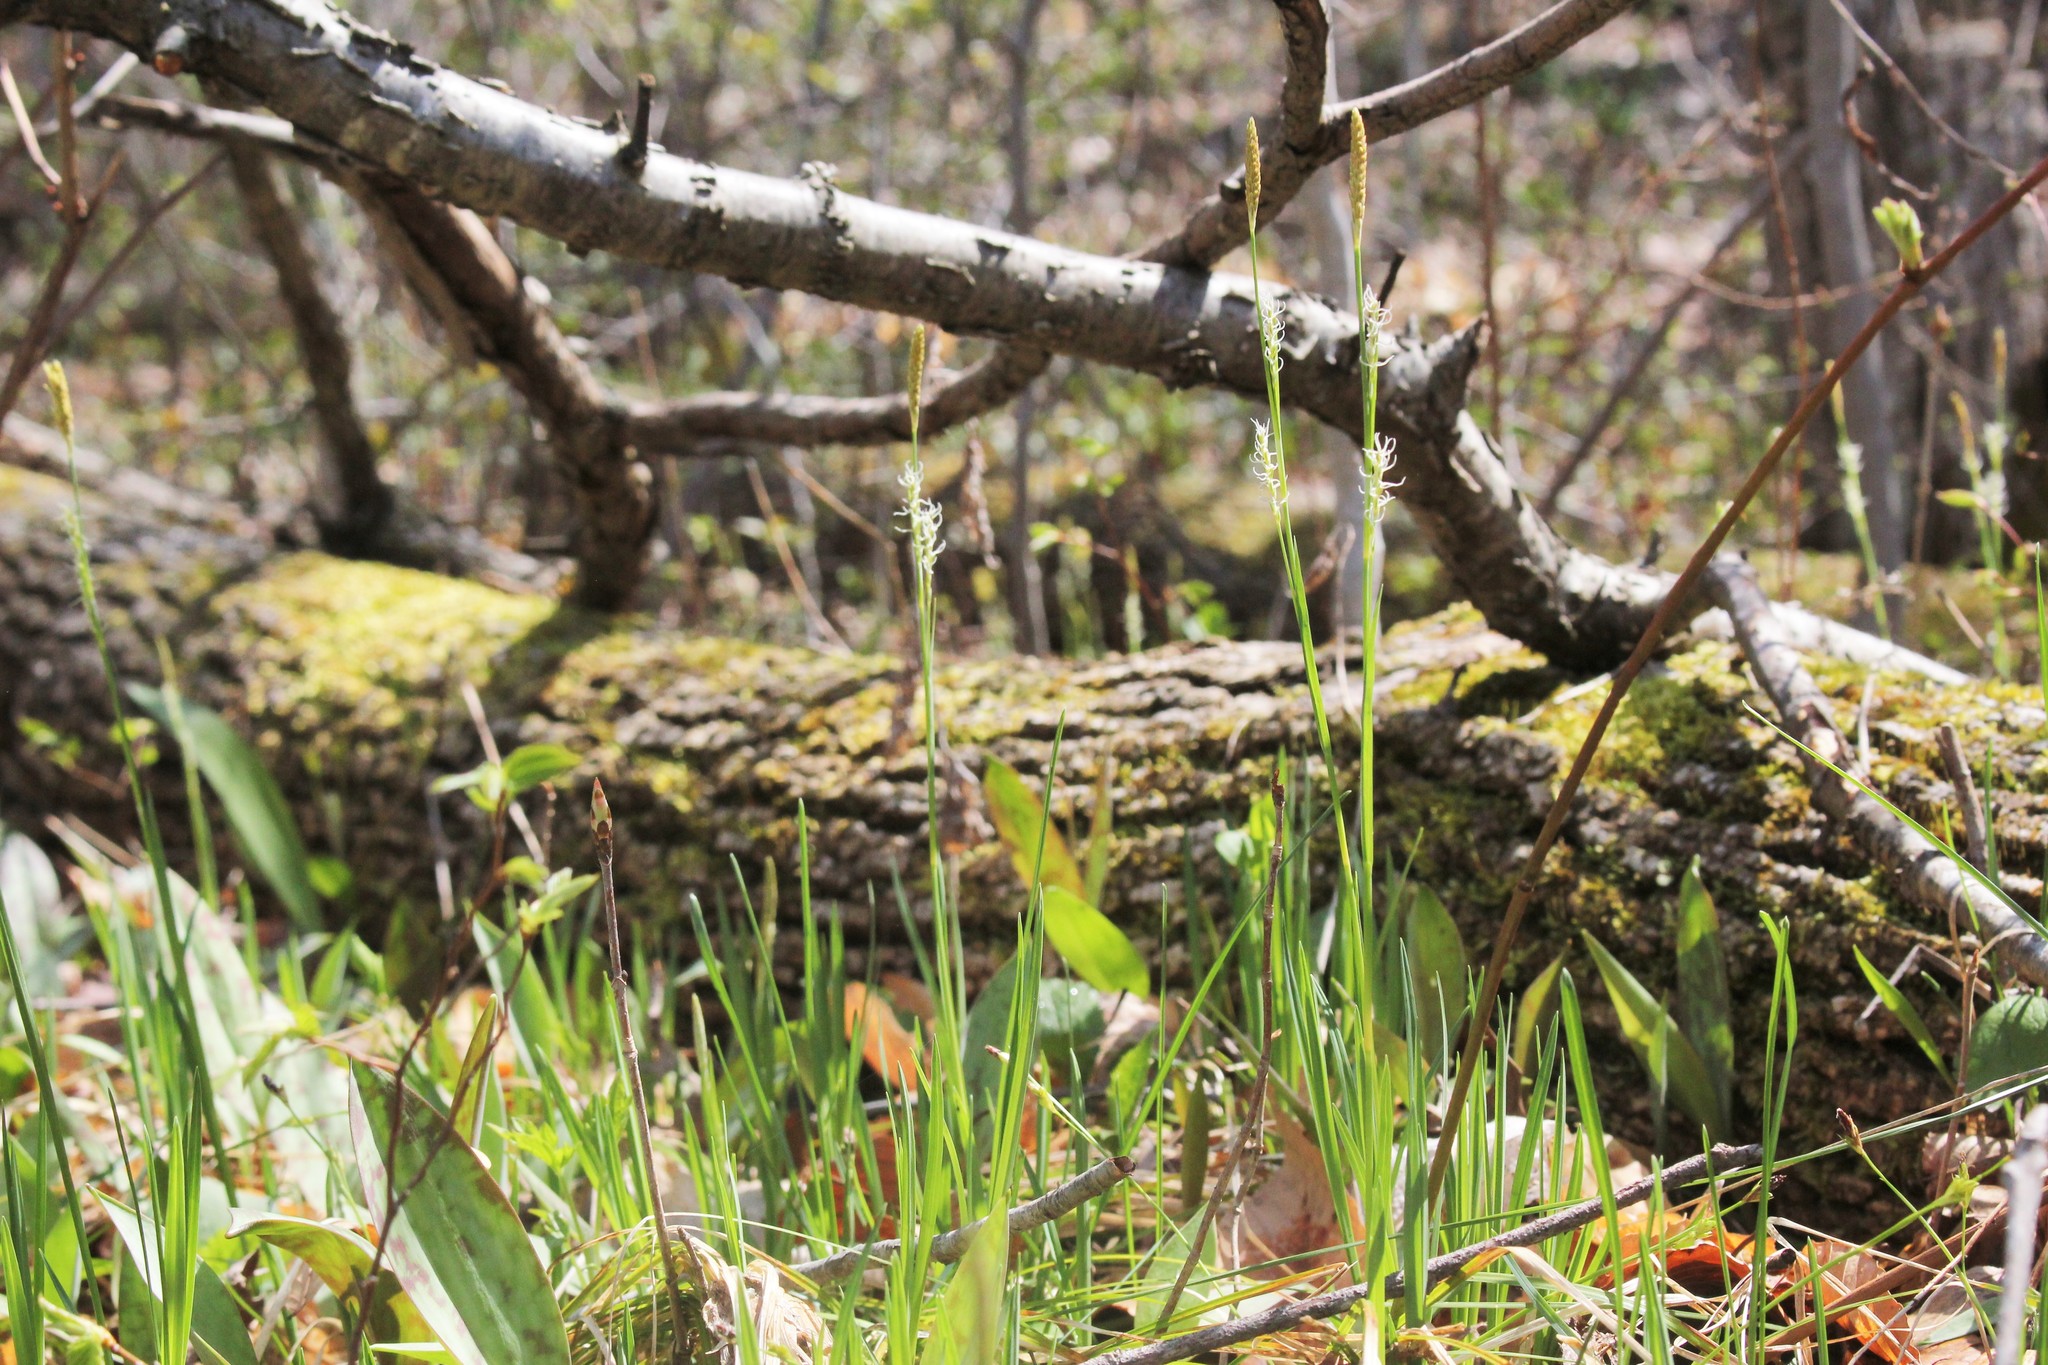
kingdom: Plantae
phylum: Tracheophyta
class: Liliopsida
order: Poales
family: Cyperaceae
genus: Carex
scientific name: Carex woodii
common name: Wood's sedge
